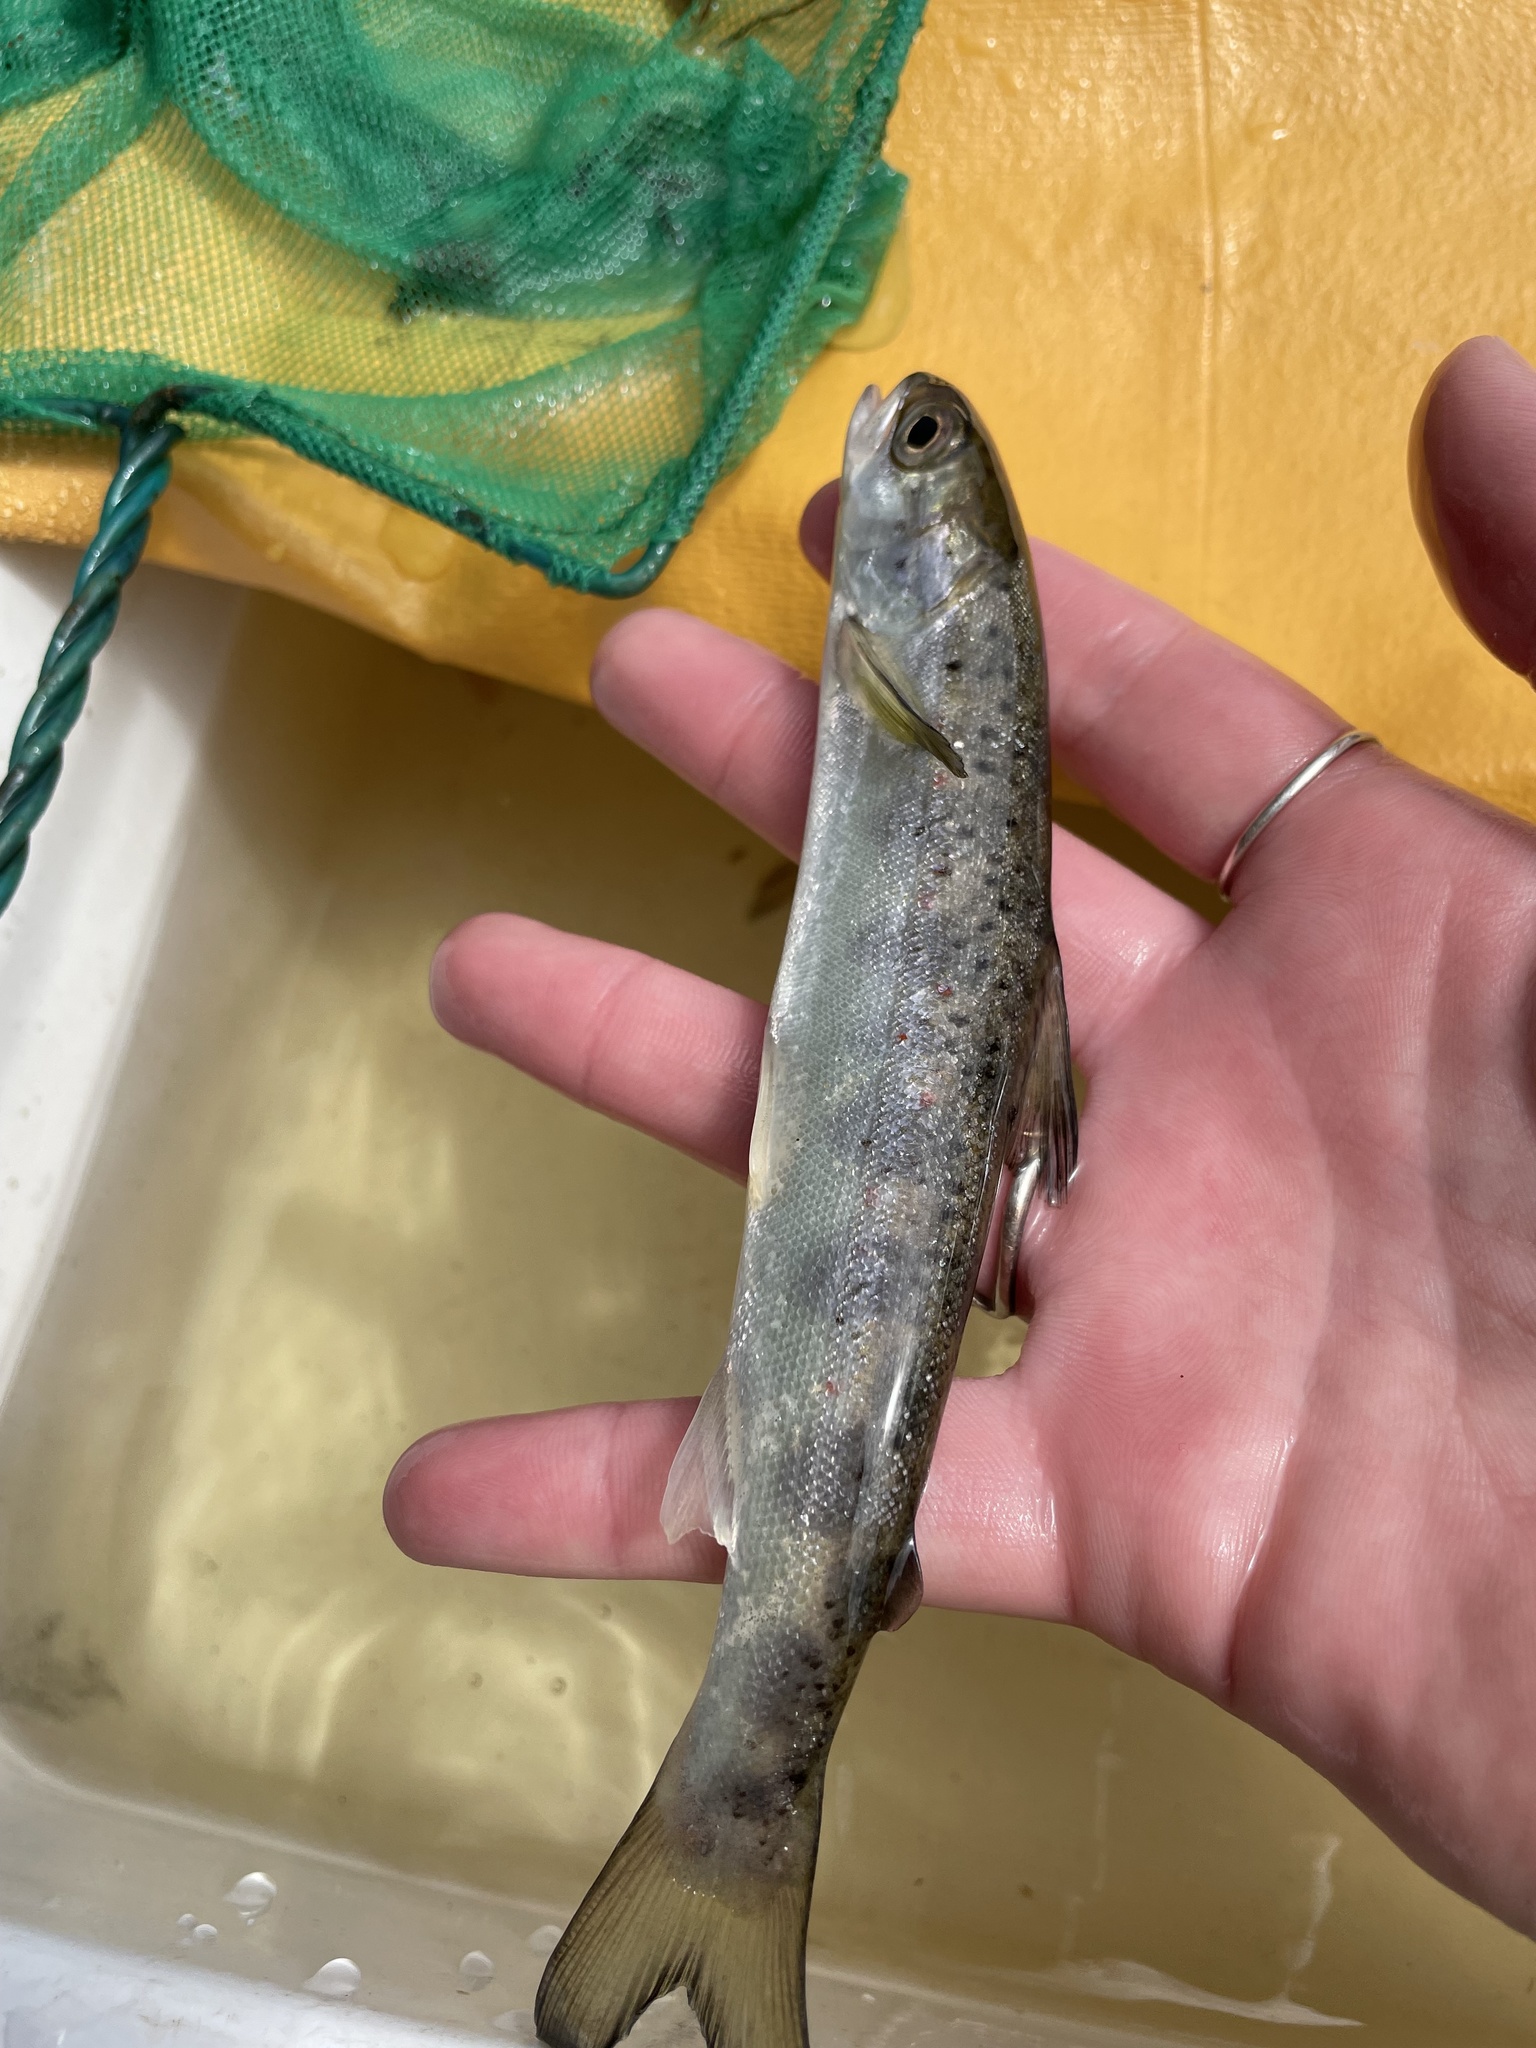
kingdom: Animalia
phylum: Chordata
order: Salmoniformes
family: Salmonidae
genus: Salmo
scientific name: Salmo salar
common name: Atlantic salmon
